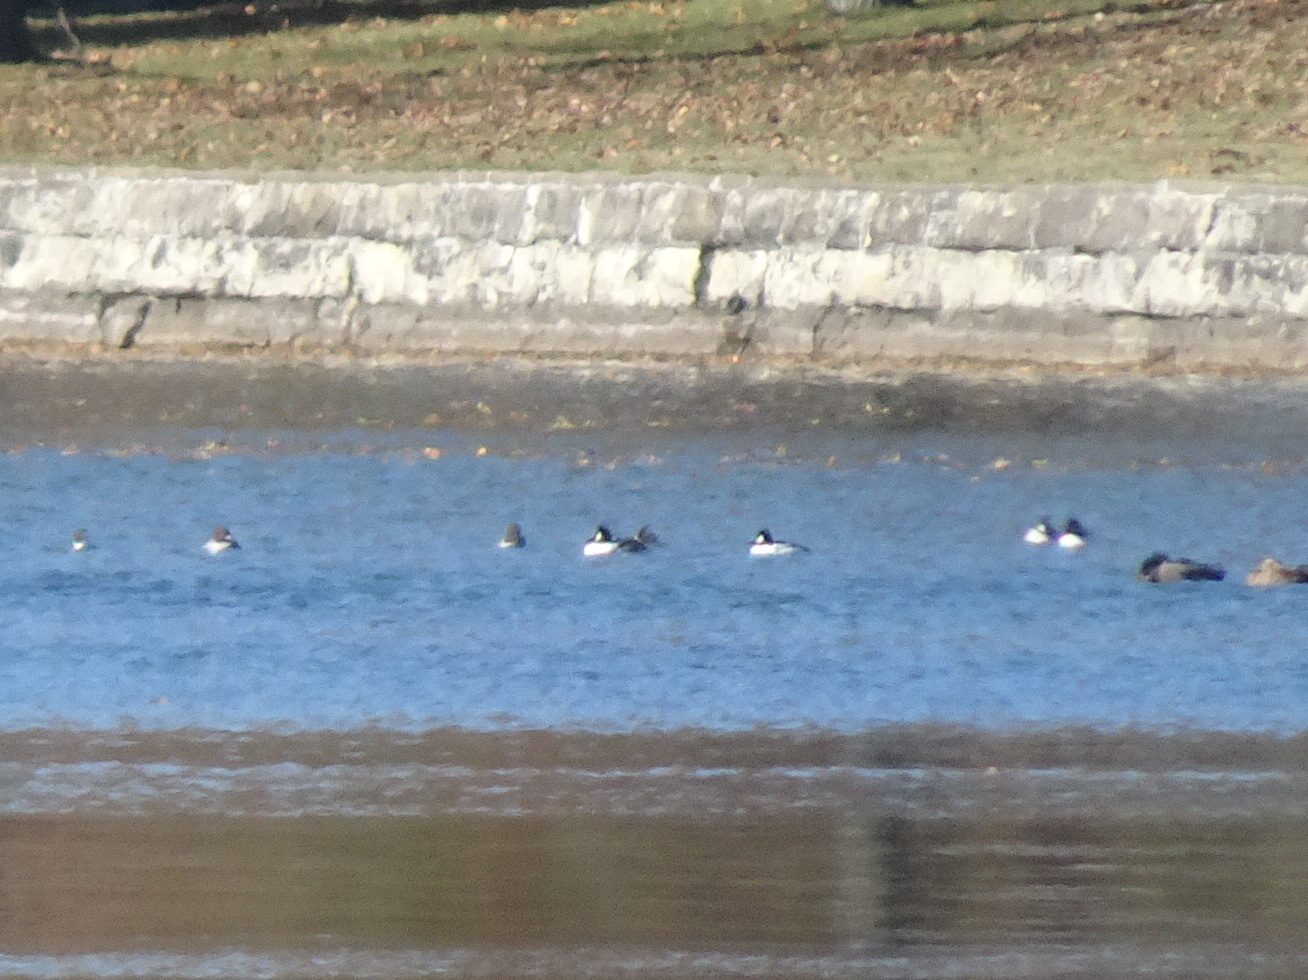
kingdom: Animalia
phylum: Chordata
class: Aves
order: Anseriformes
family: Anatidae
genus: Bucephala
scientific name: Bucephala clangula
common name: Common goldeneye
